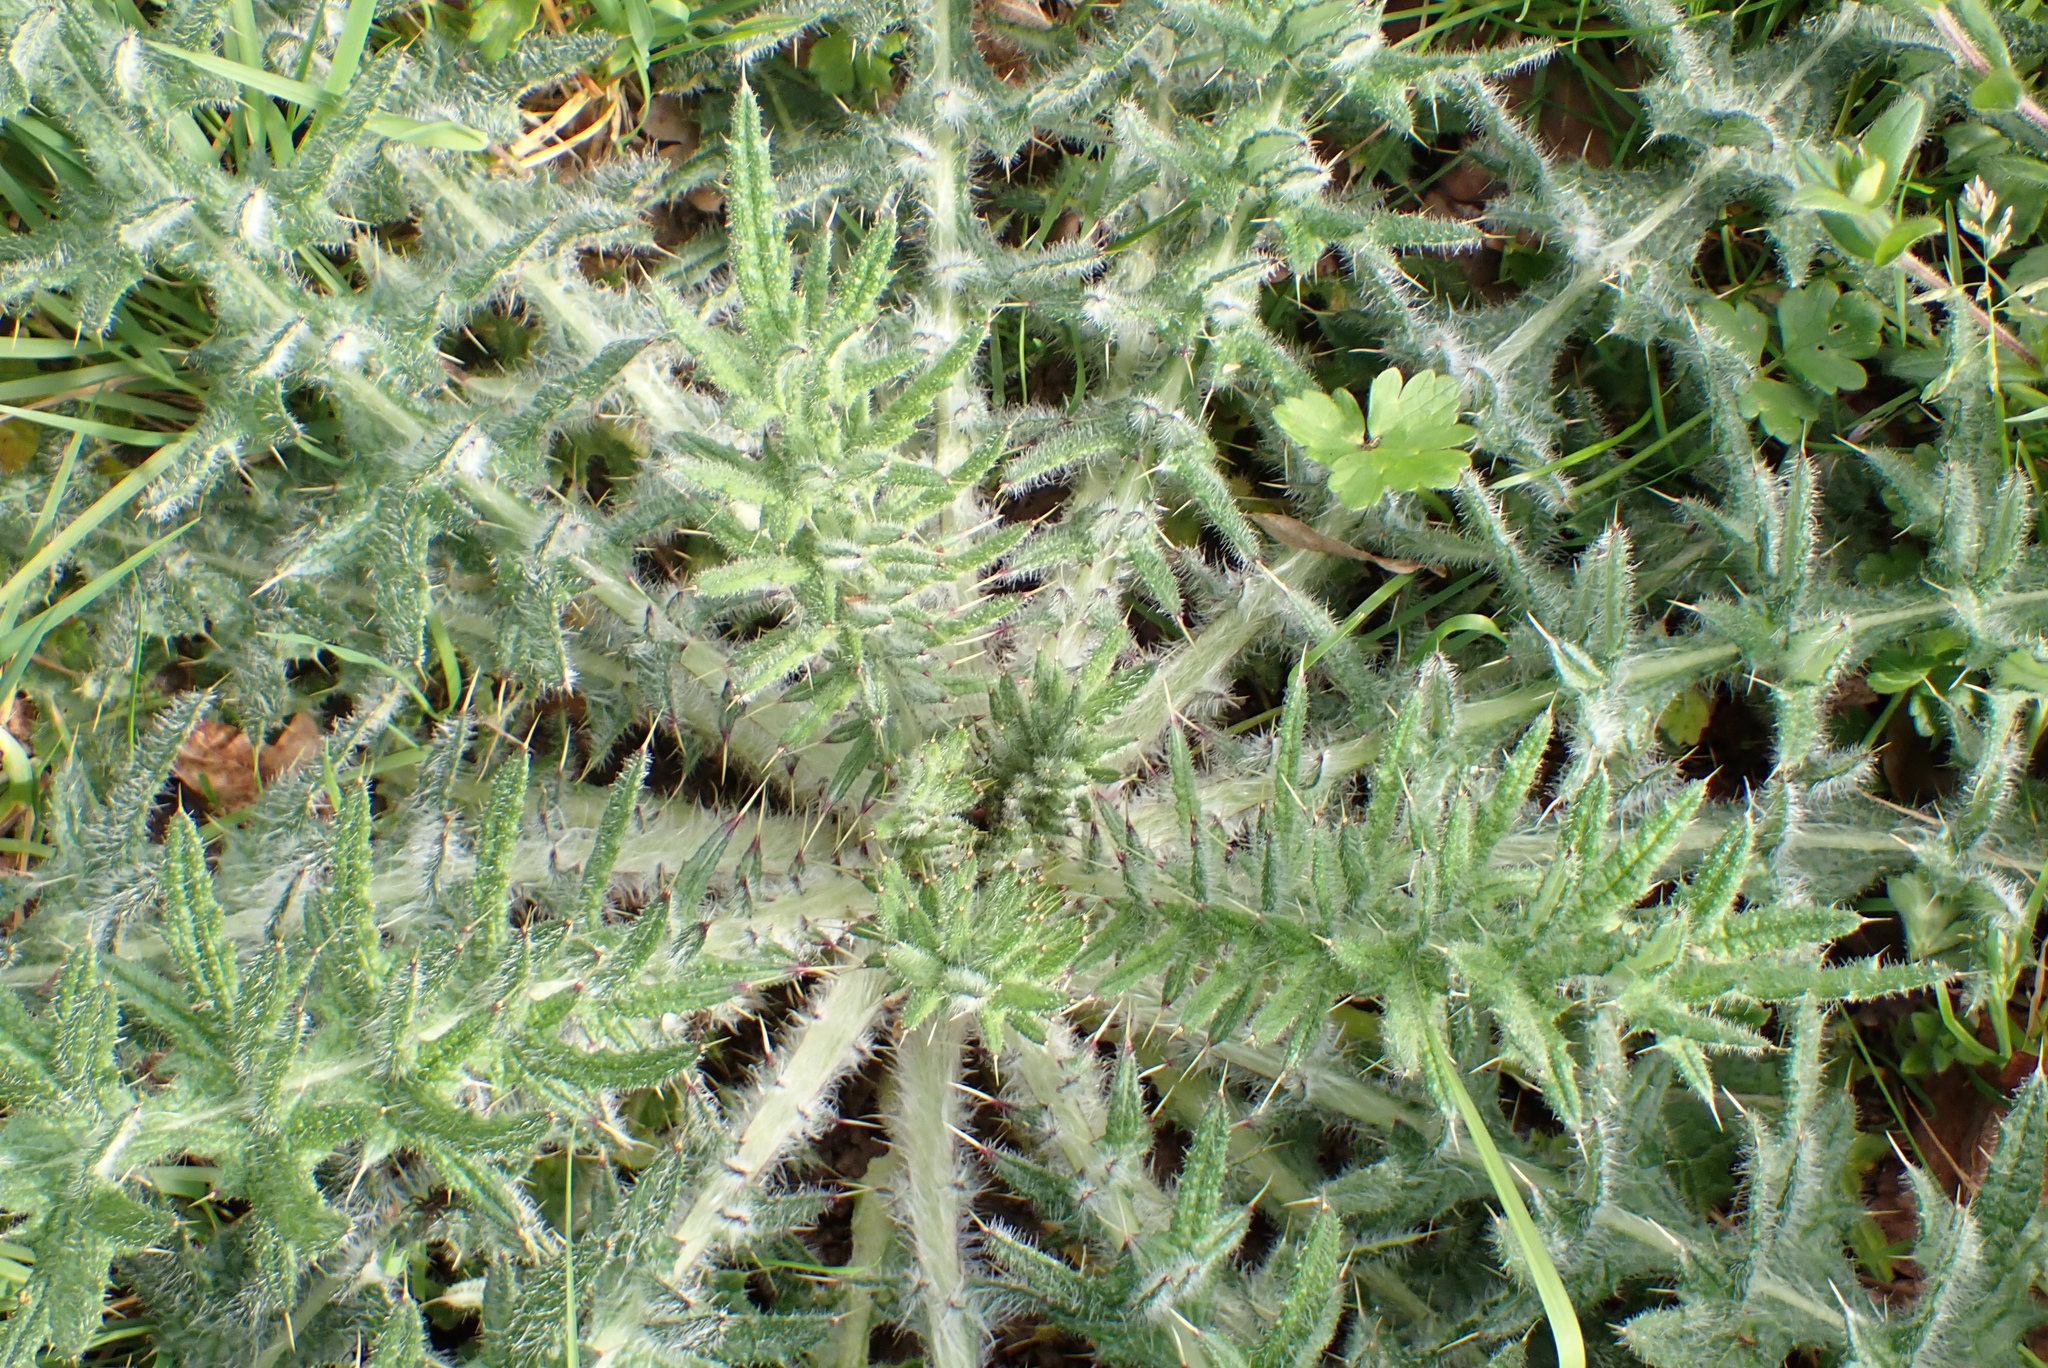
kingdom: Plantae
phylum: Tracheophyta
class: Magnoliopsida
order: Asterales
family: Asteraceae
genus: Cirsium
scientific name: Cirsium vulgare
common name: Bull thistle
